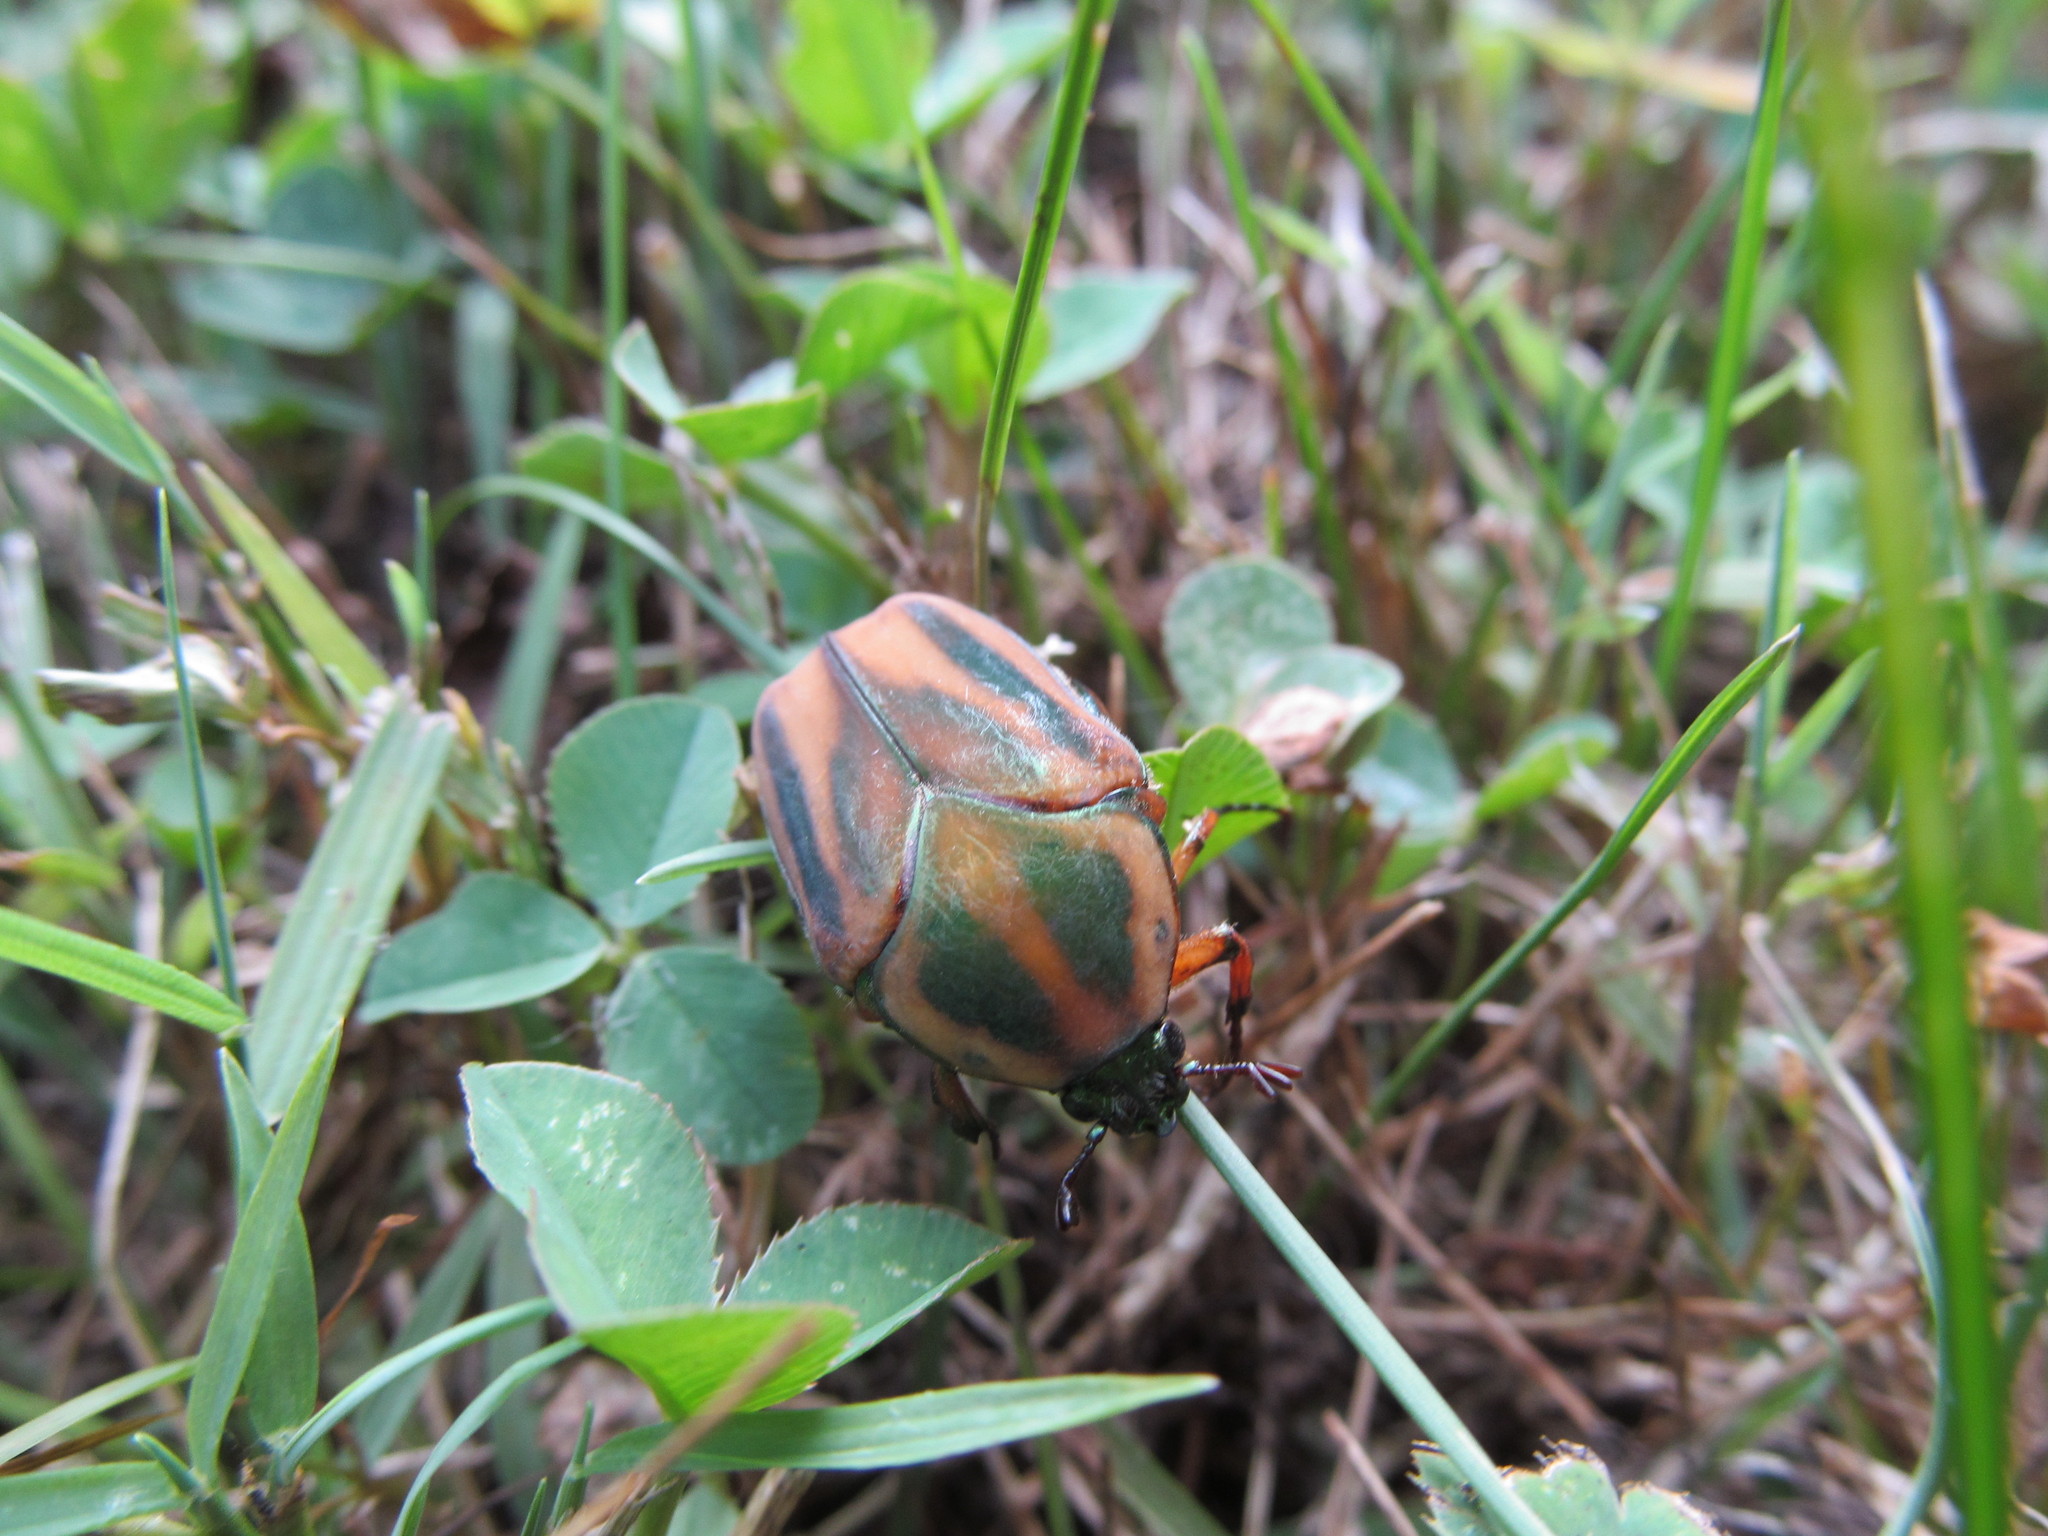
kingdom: Animalia
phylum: Arthropoda
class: Insecta
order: Coleoptera
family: Scarabaeidae
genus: Cotinis
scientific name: Cotinis nitida
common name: Common green june beetle
